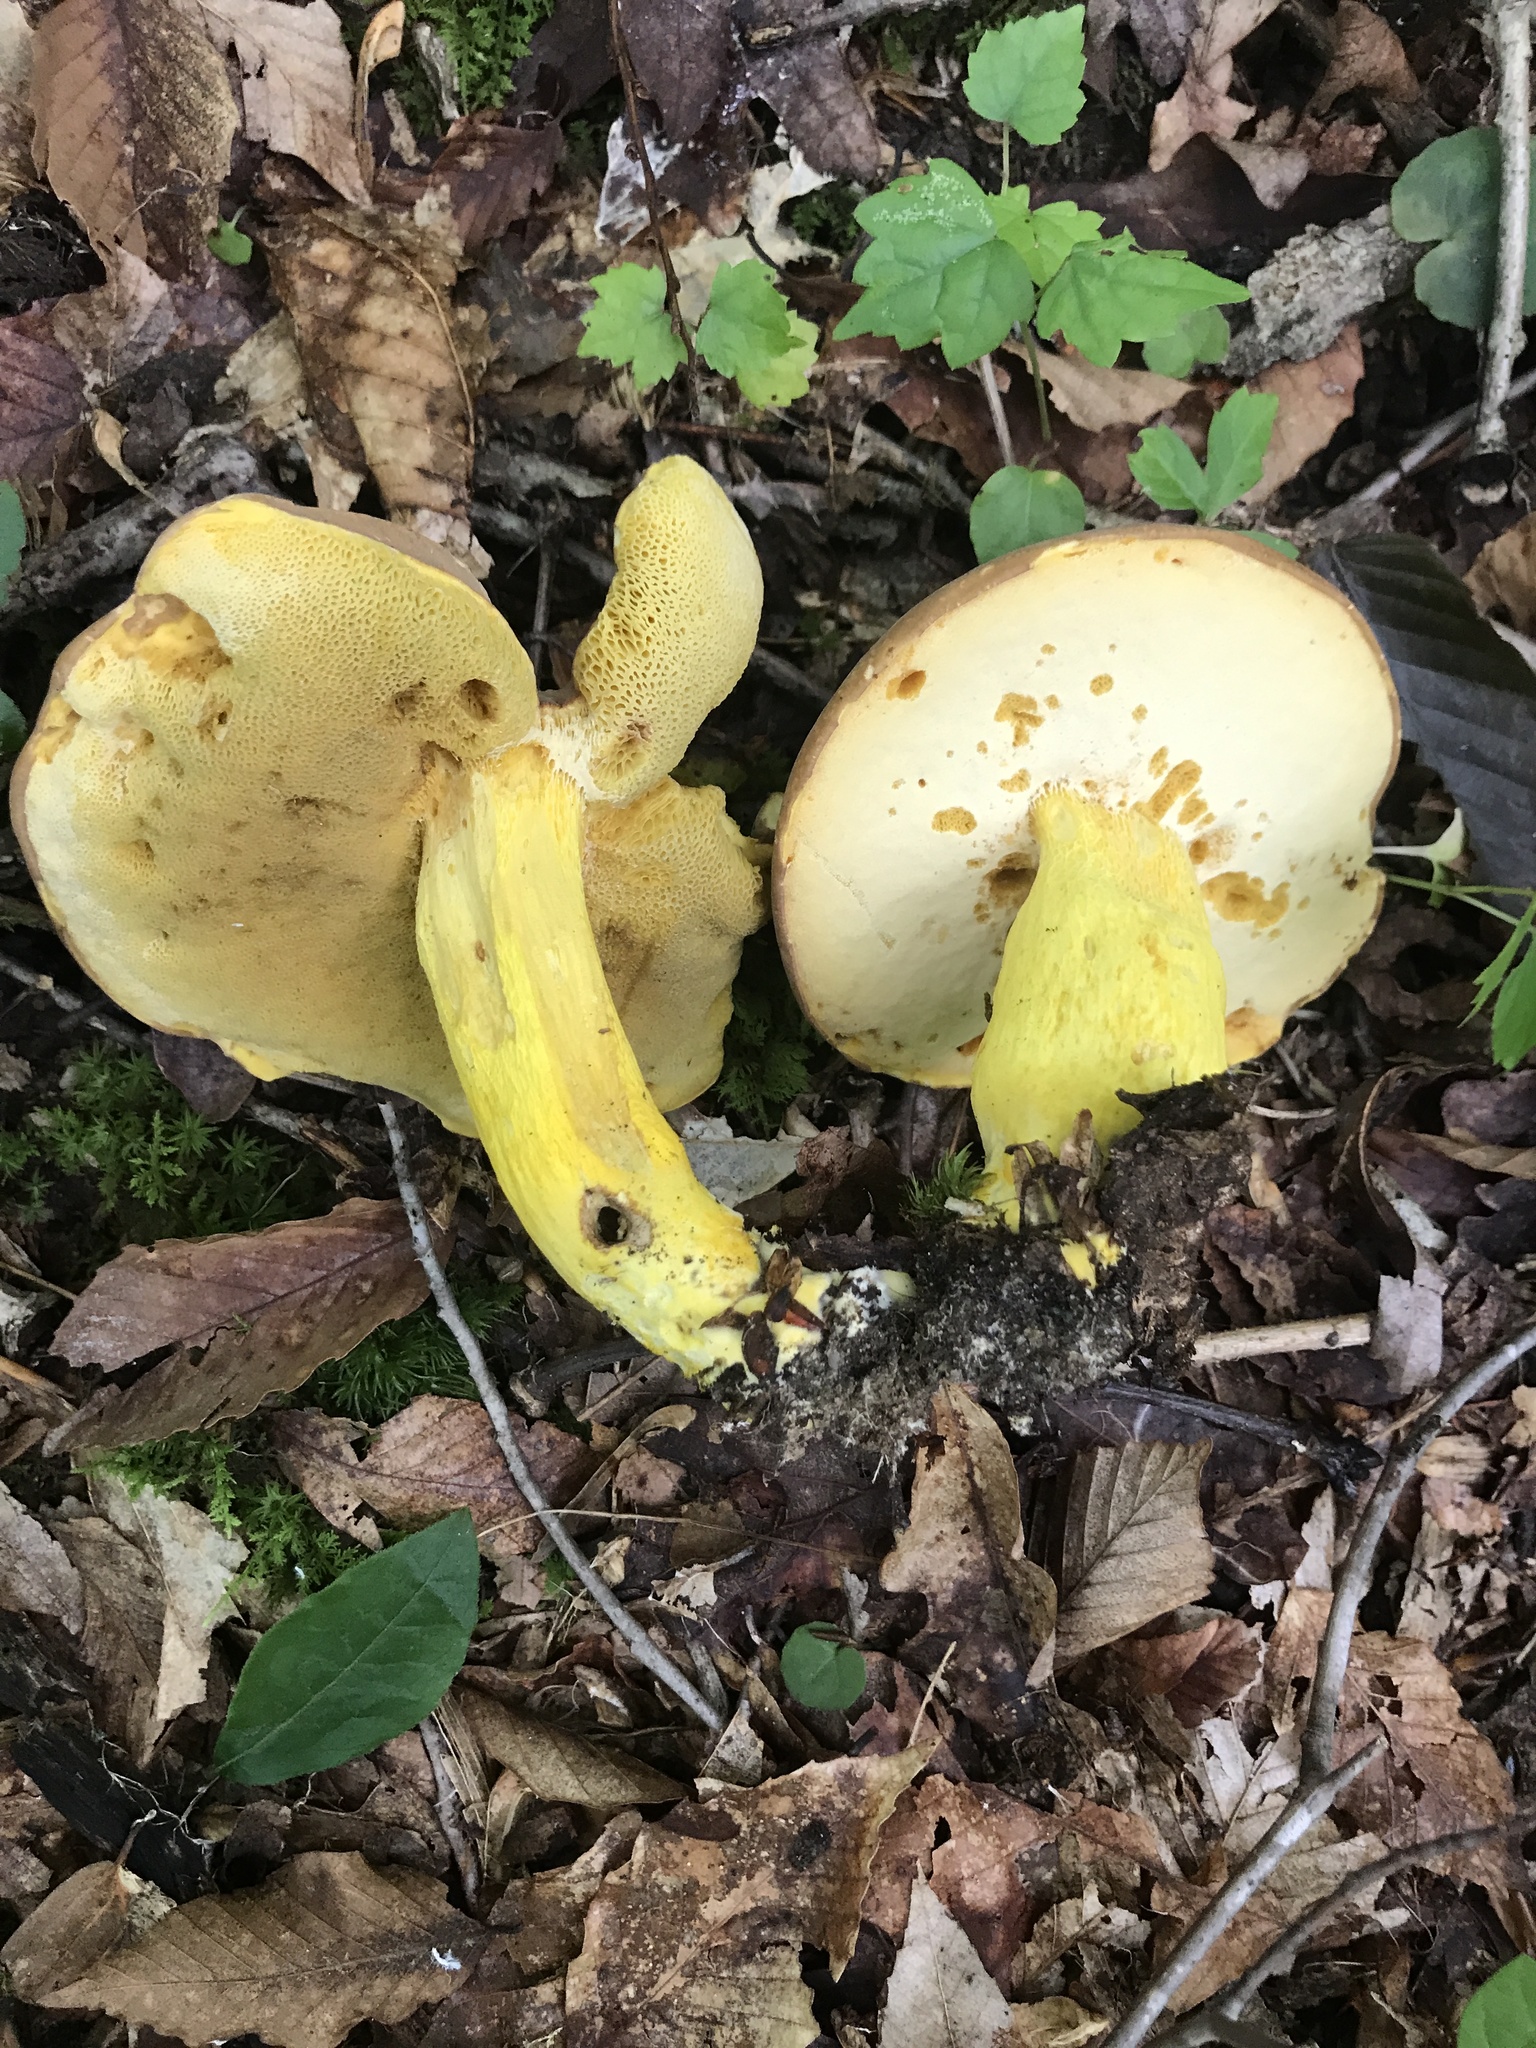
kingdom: Fungi
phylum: Basidiomycota
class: Agaricomycetes
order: Boletales
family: Boletaceae
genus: Boletus
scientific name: Boletus auripes
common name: Butter-foot bolete
